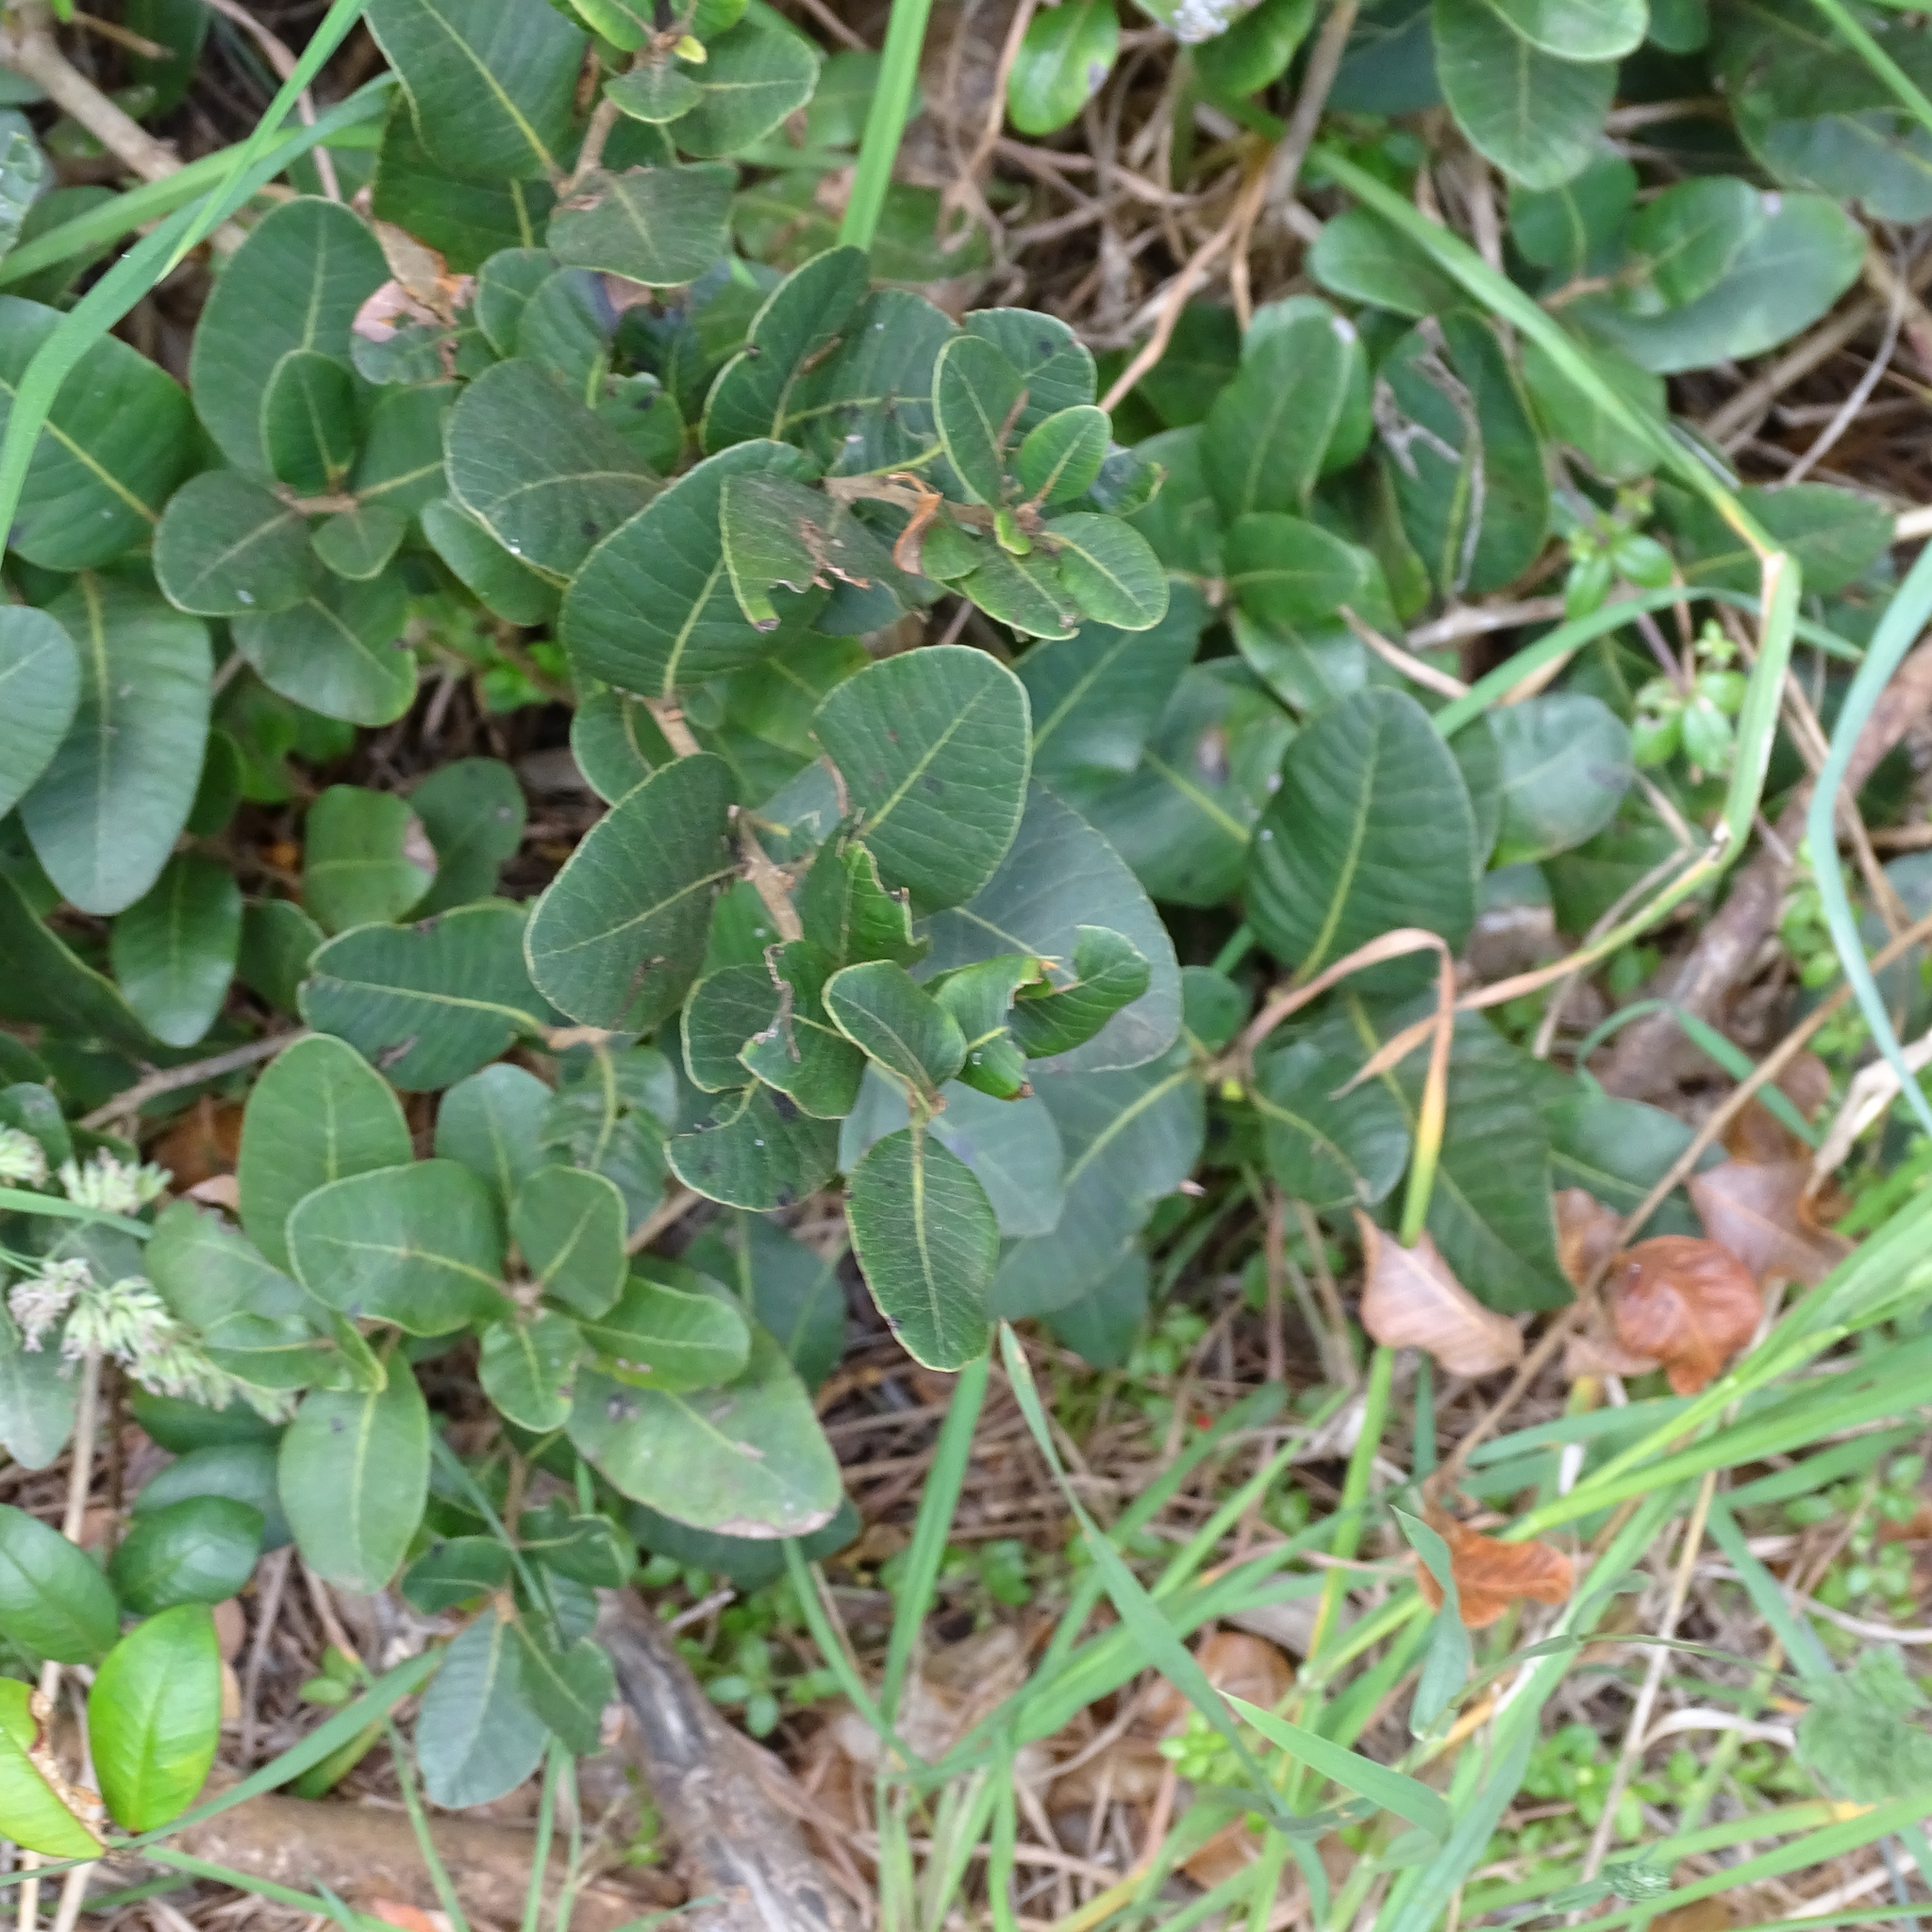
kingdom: Plantae
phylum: Tracheophyta
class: Magnoliopsida
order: Sapindales
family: Anacardiaceae
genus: Lithraea
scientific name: Lithraea caustica
